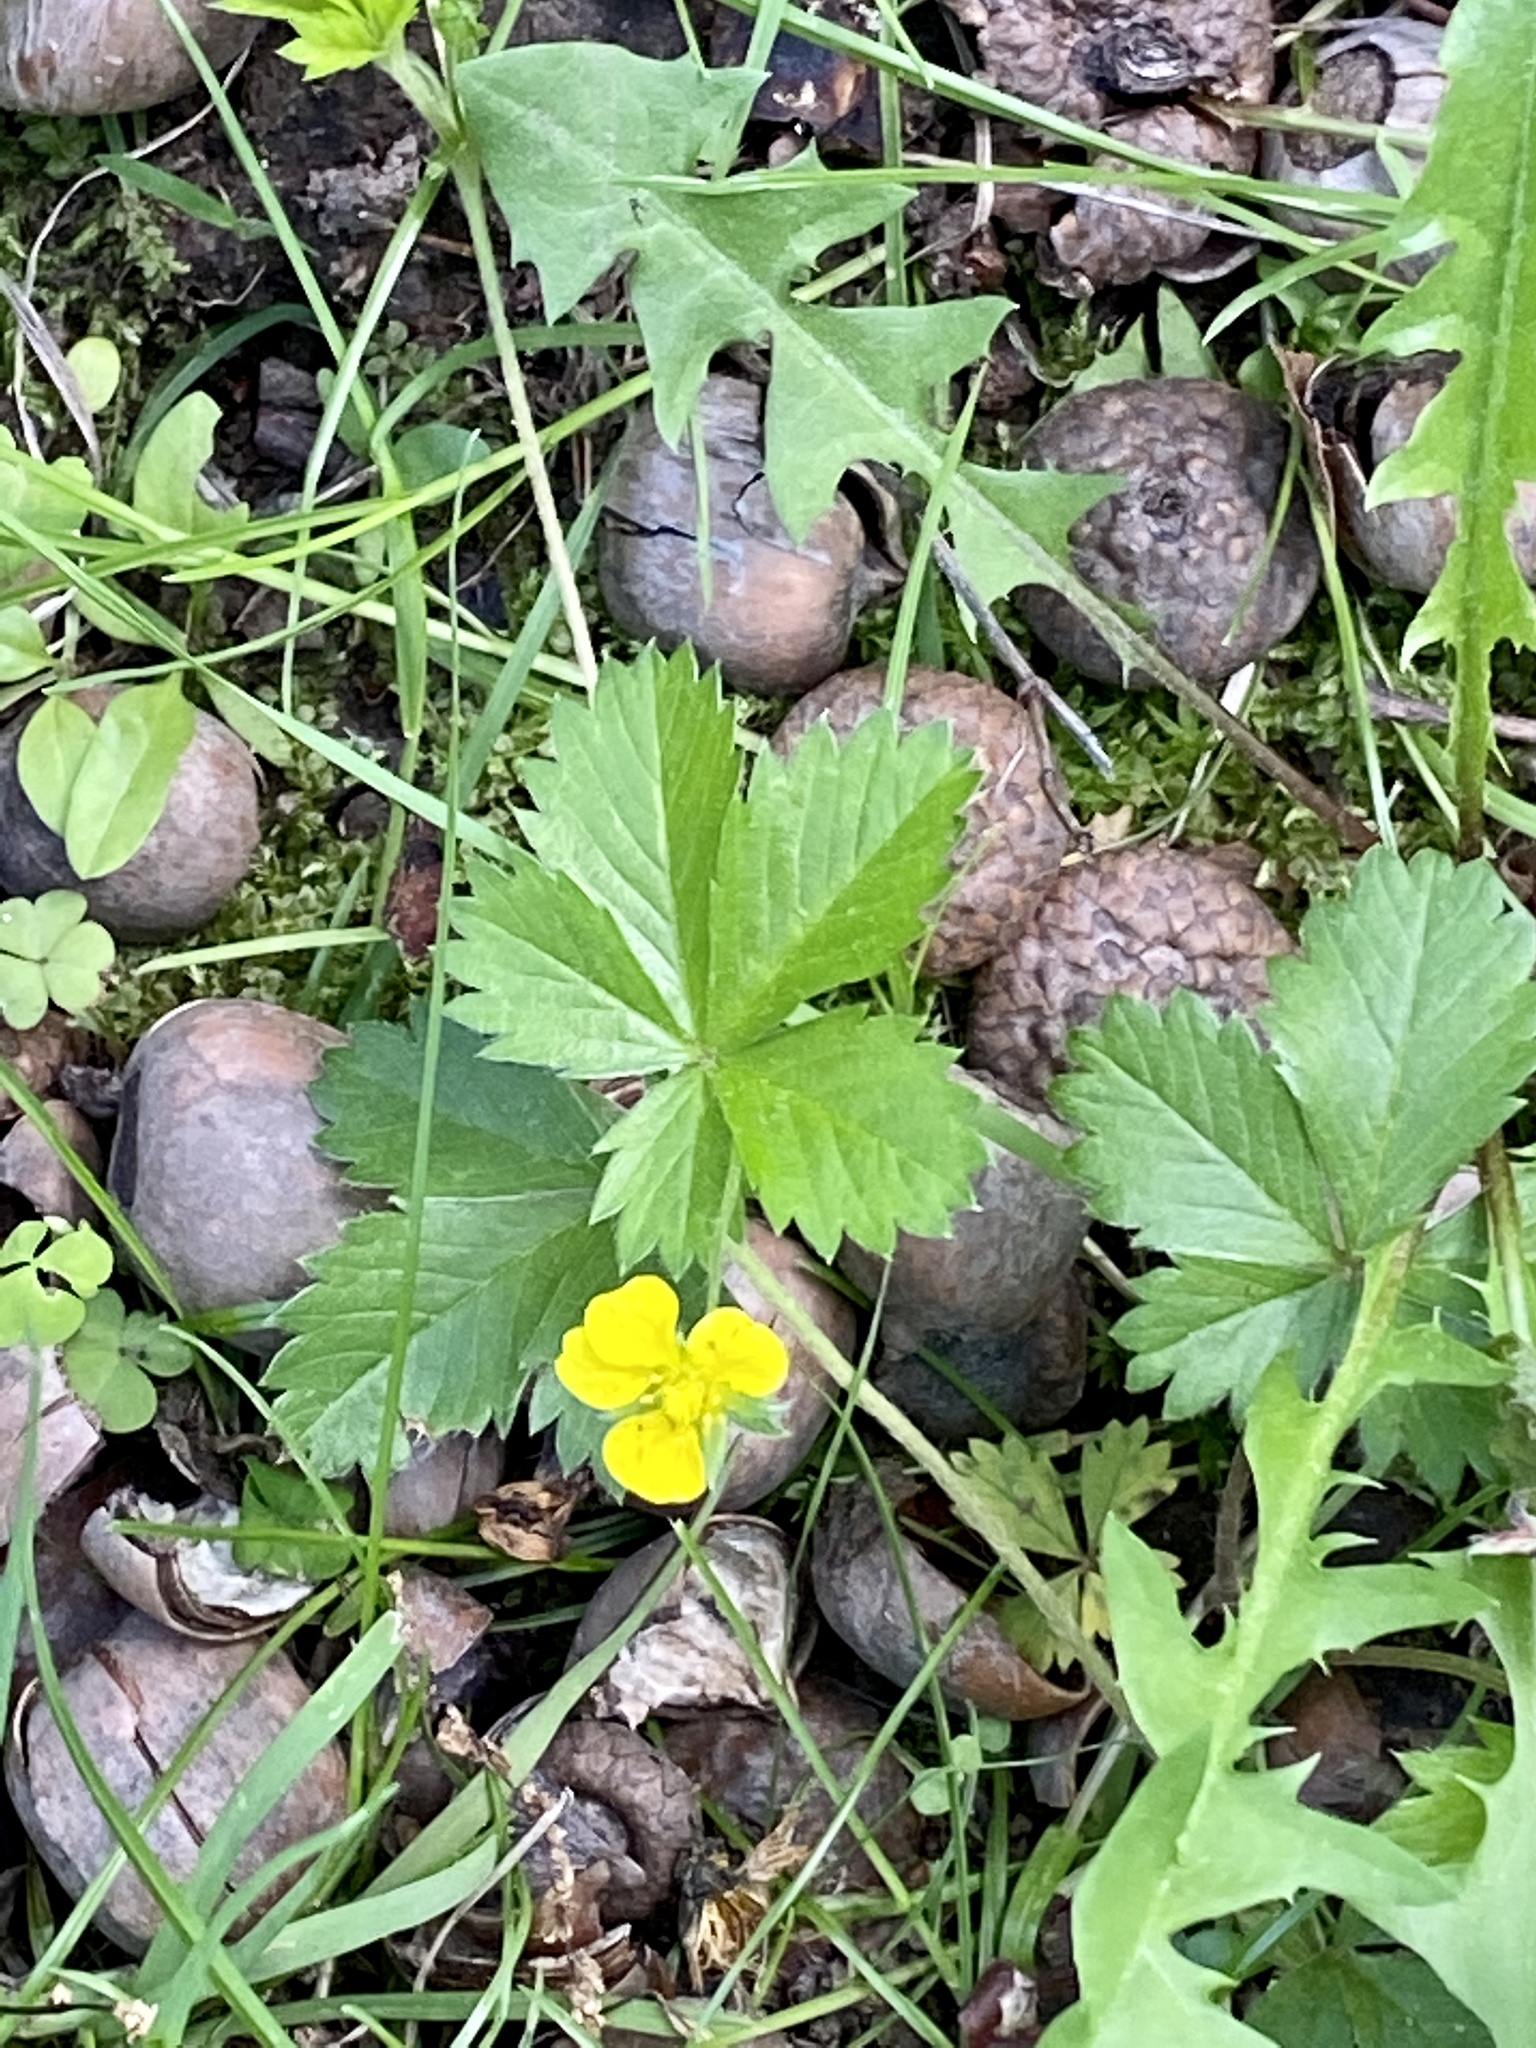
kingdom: Plantae
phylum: Tracheophyta
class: Magnoliopsida
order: Rosales
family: Rosaceae
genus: Potentilla
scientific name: Potentilla canadensis
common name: Canada cinquefoil
